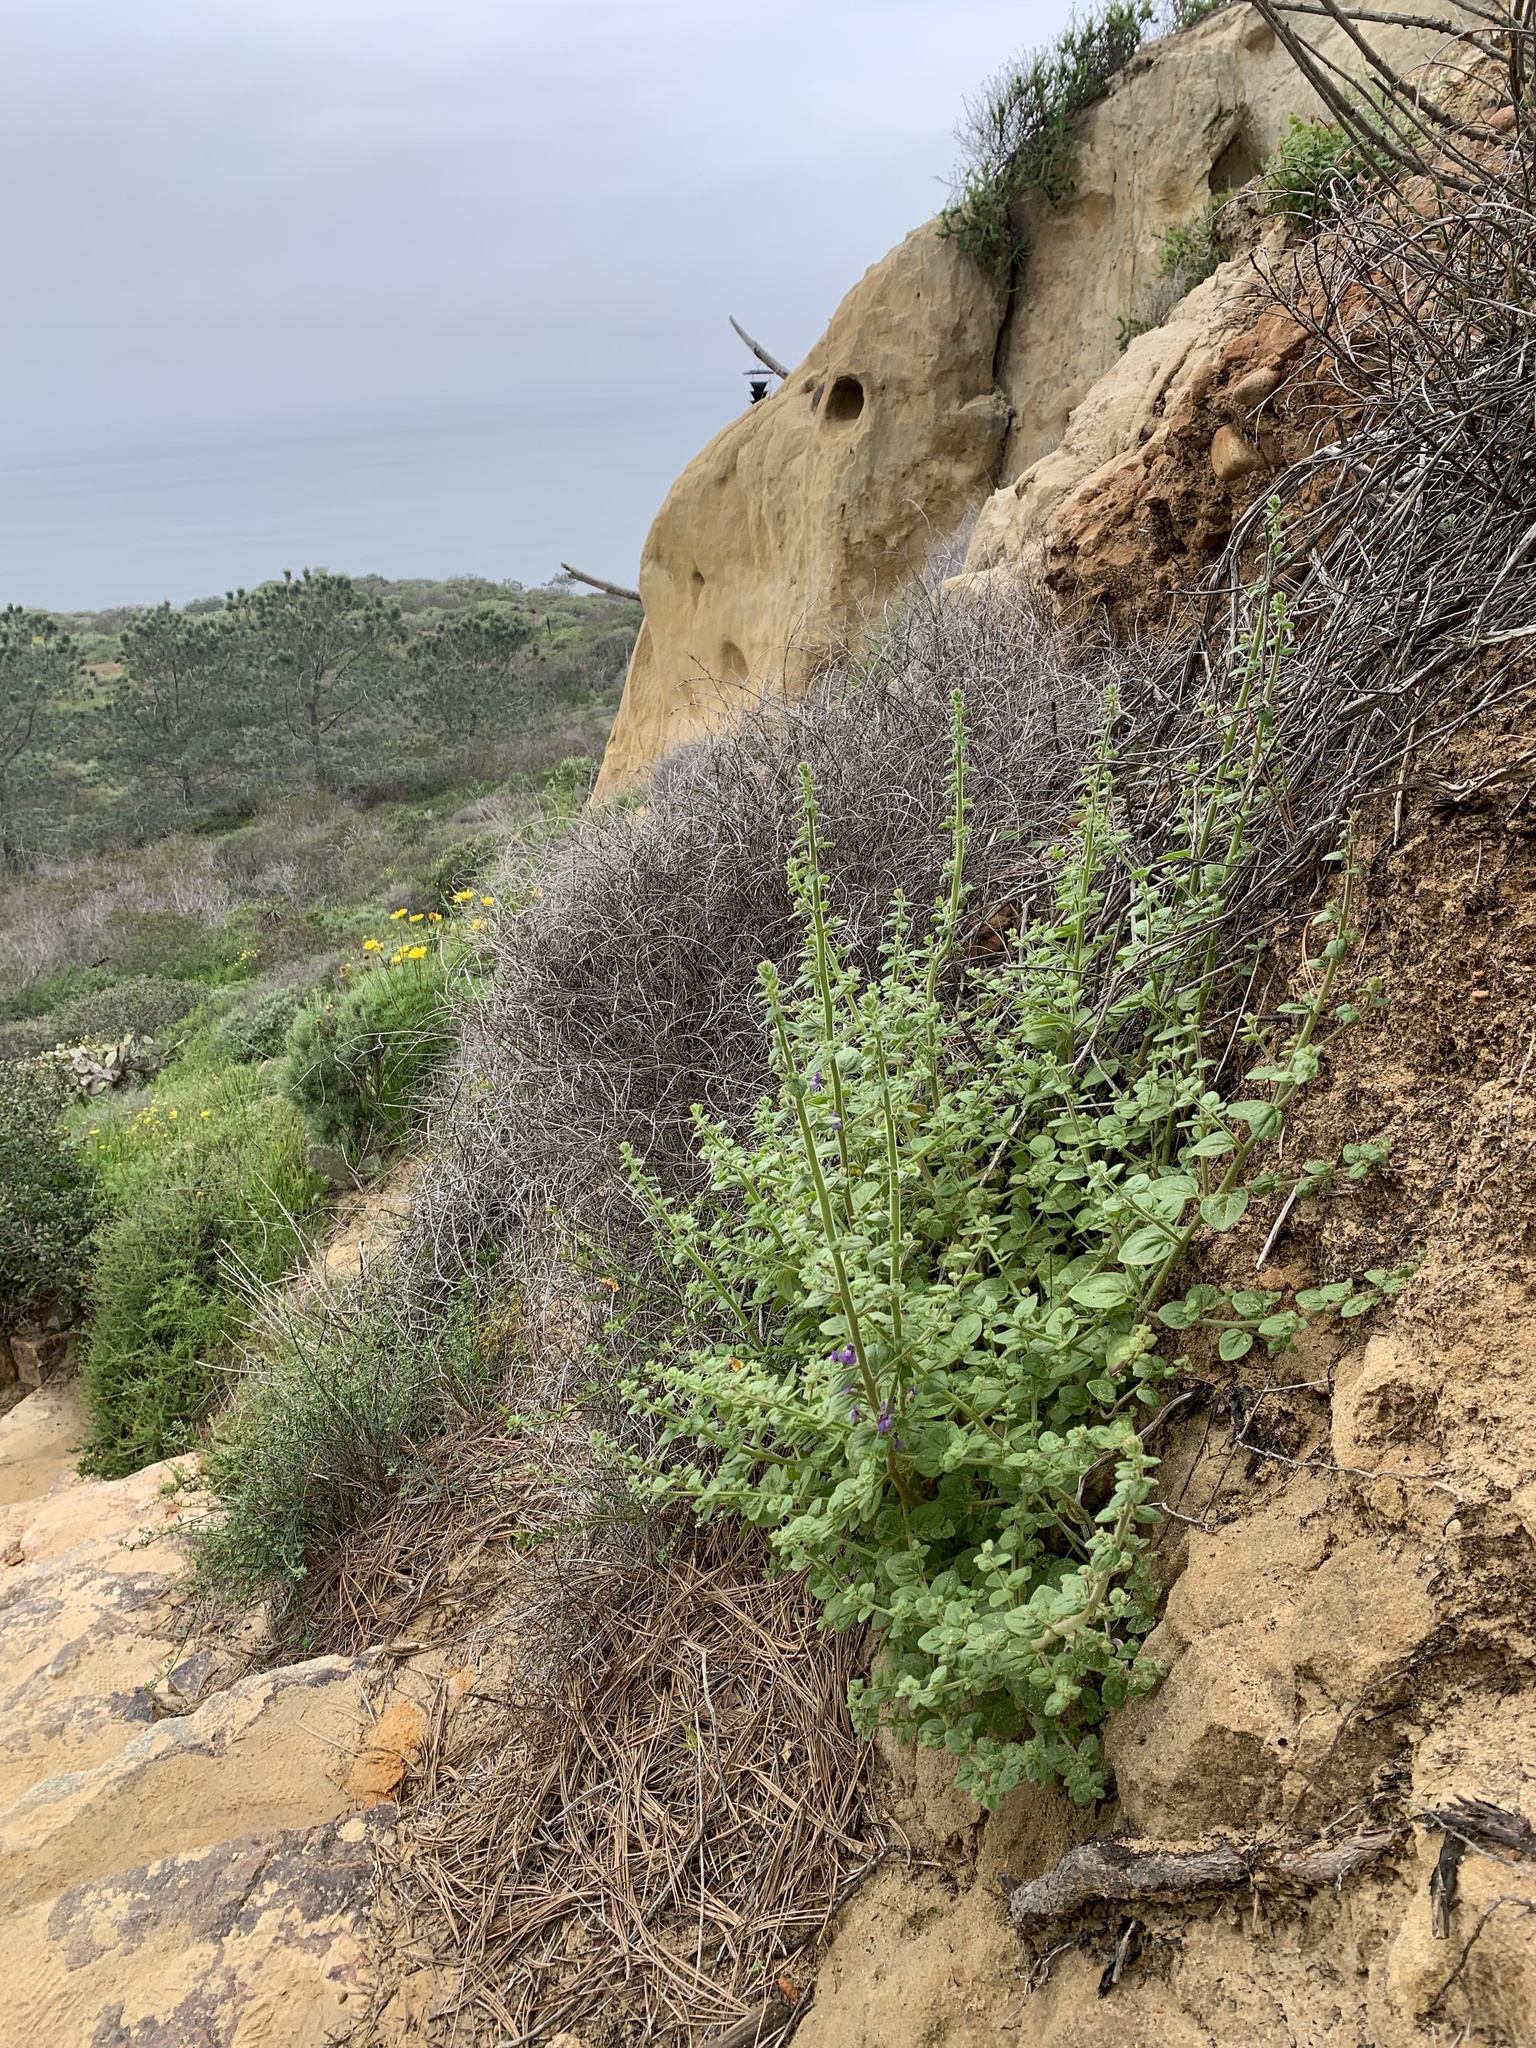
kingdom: Plantae
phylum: Tracheophyta
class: Magnoliopsida
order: Lamiales
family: Plantaginaceae
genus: Sairocarpus
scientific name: Sairocarpus nuttallianus
